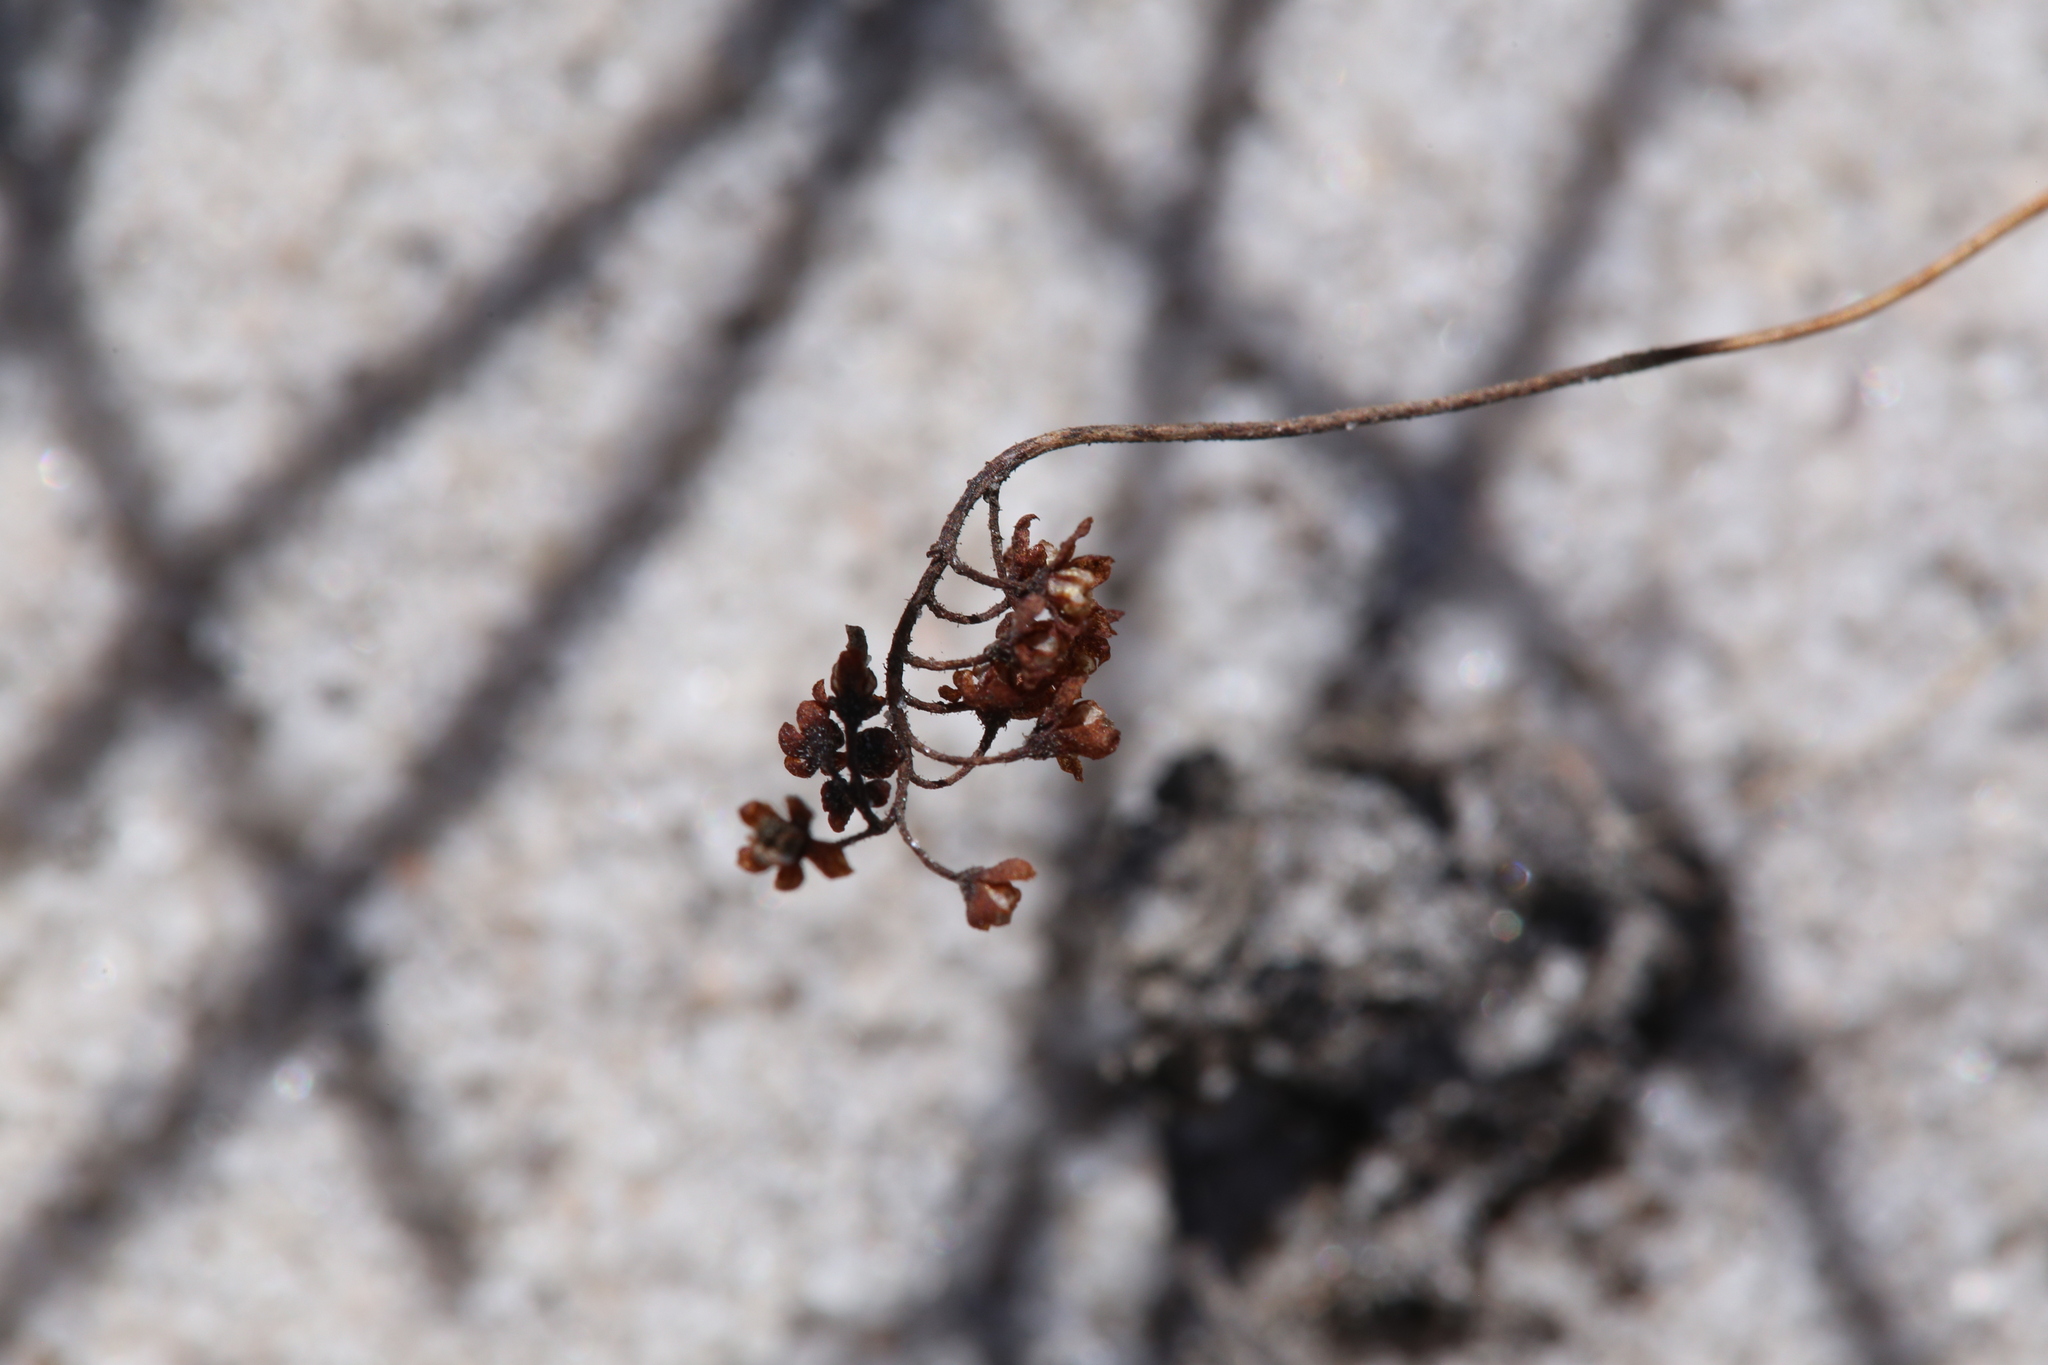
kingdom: Plantae
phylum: Tracheophyta
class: Magnoliopsida
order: Caryophyllales
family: Droseraceae
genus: Drosera
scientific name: Drosera eneabba
